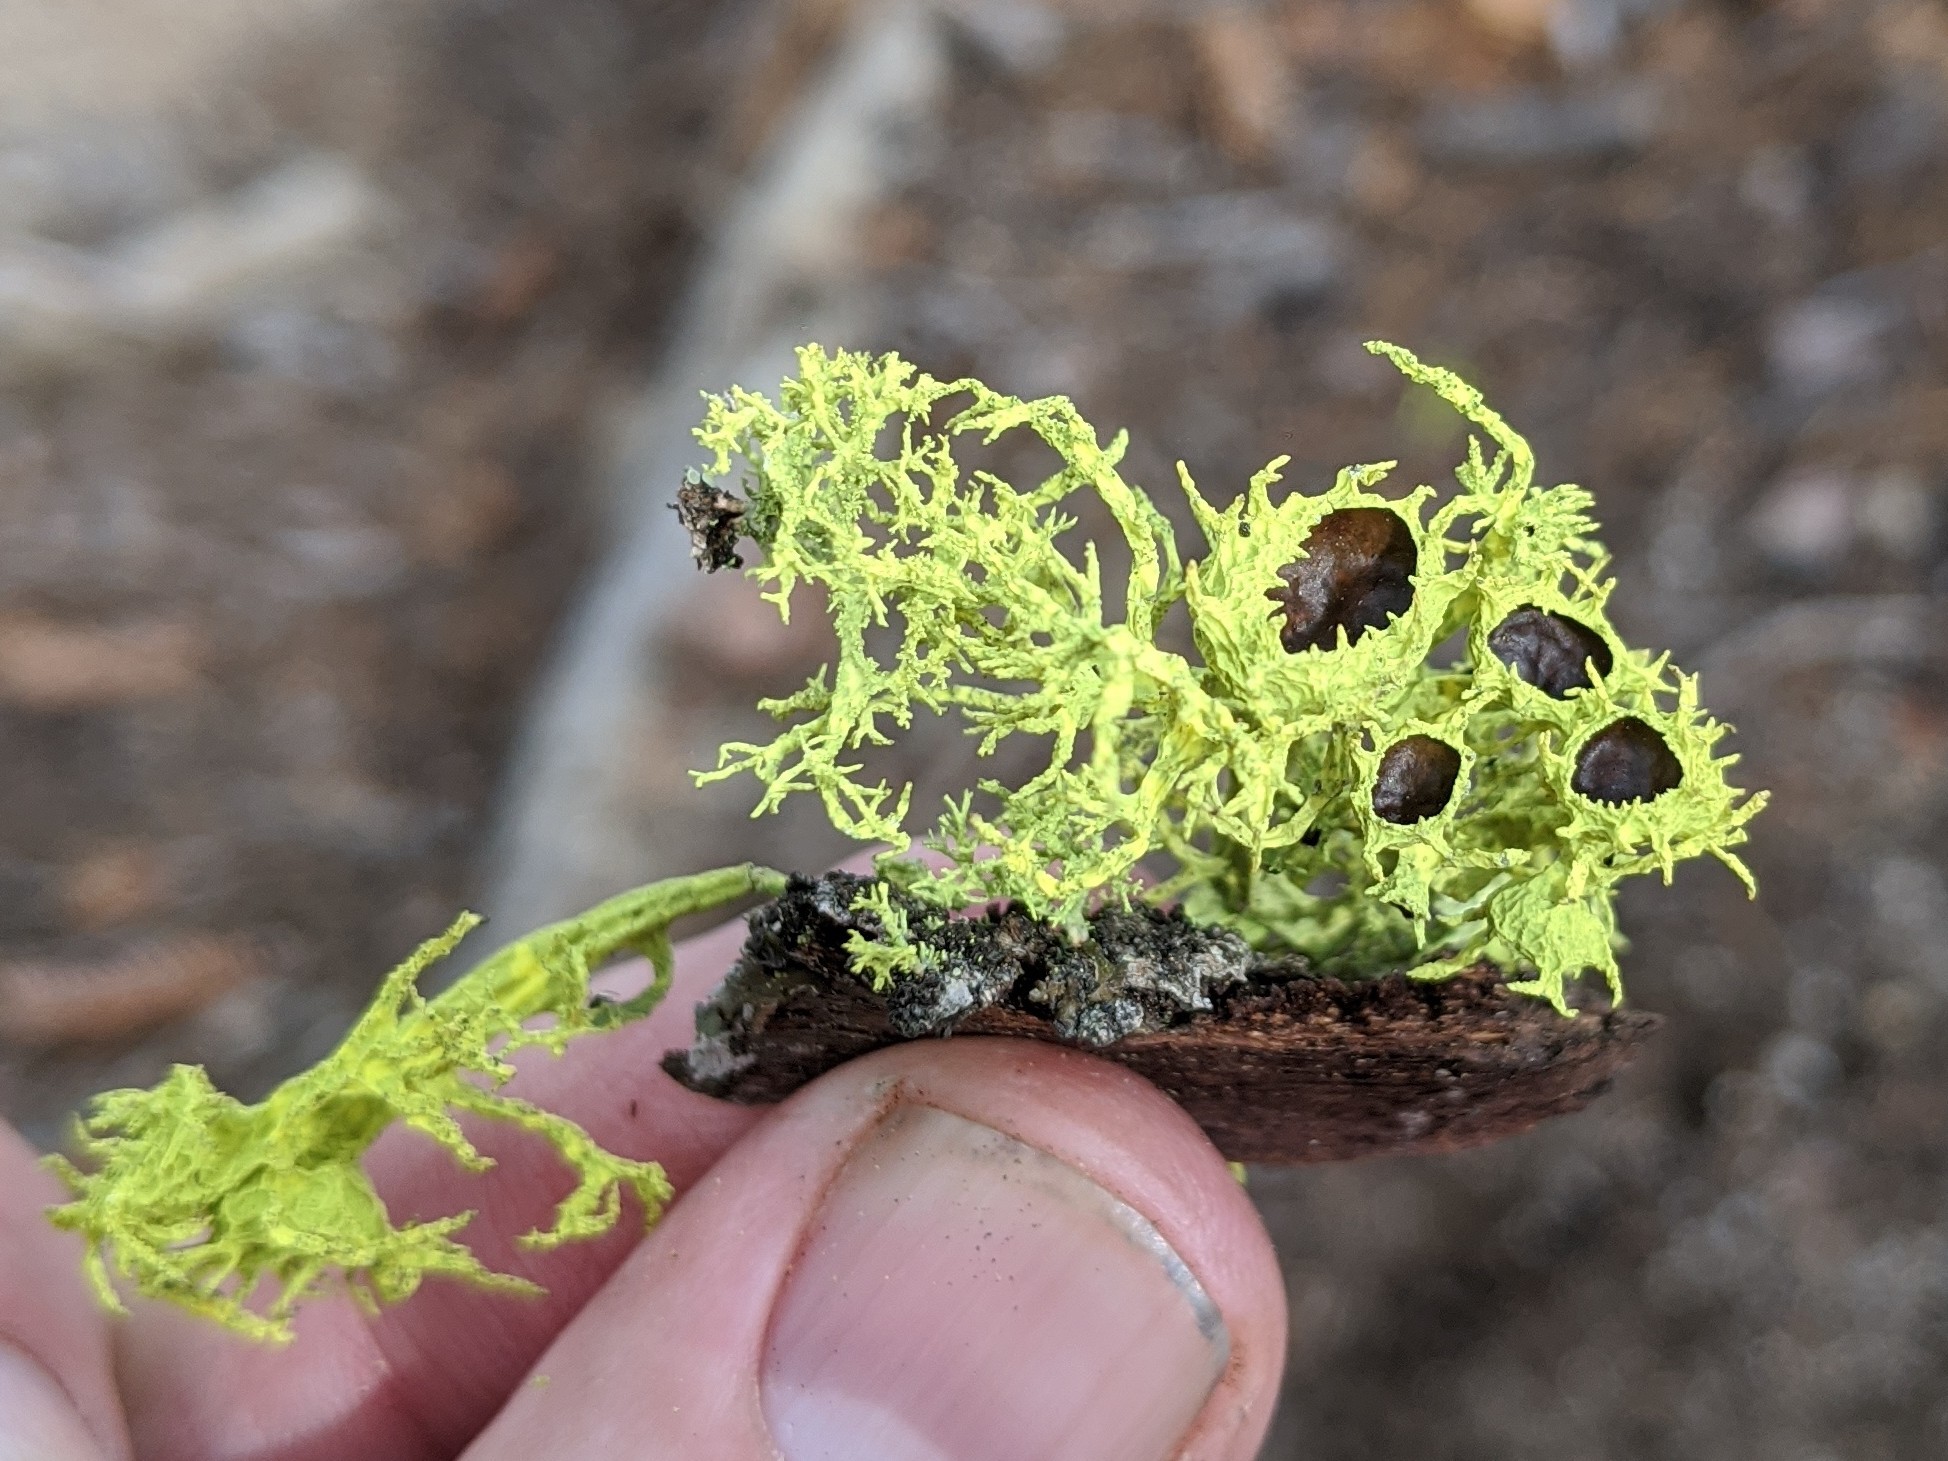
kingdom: Fungi
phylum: Ascomycota
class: Lecanoromycetes
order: Lecanorales
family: Parmeliaceae
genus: Letharia
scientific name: Letharia
